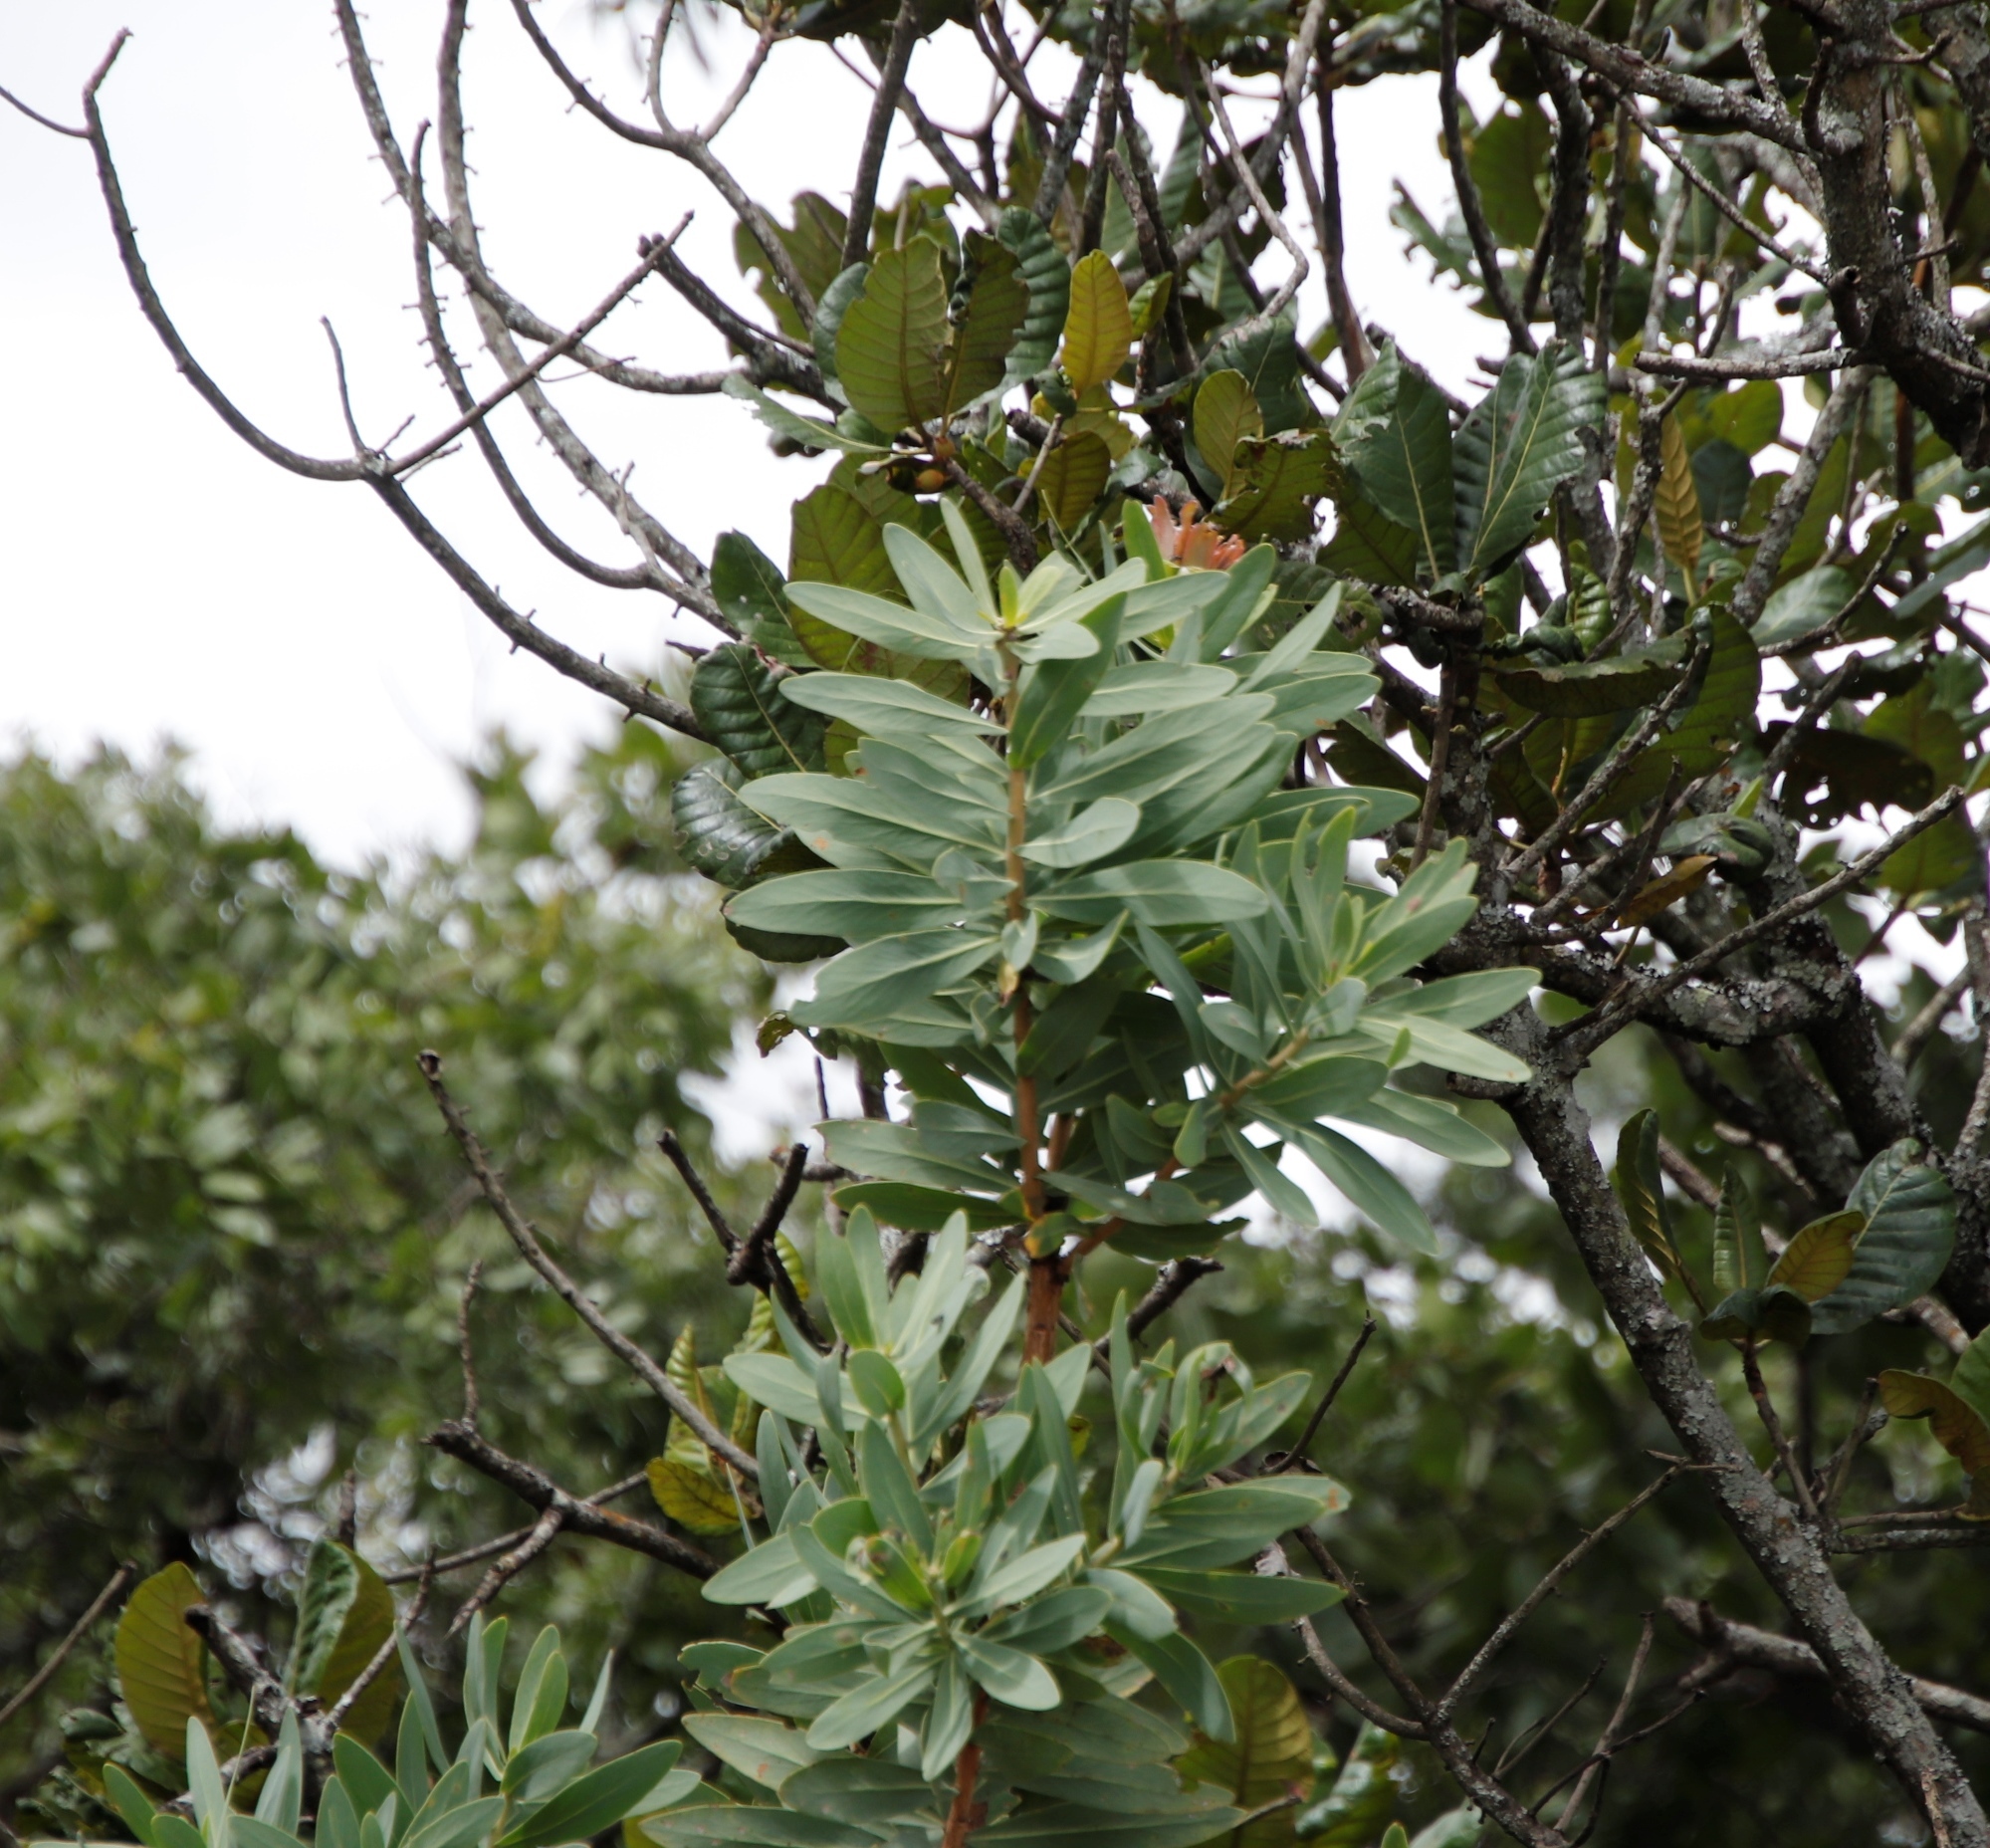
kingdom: Plantae
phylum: Tracheophyta
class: Magnoliopsida
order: Proteales
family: Proteaceae
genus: Protea
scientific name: Protea angolensis
